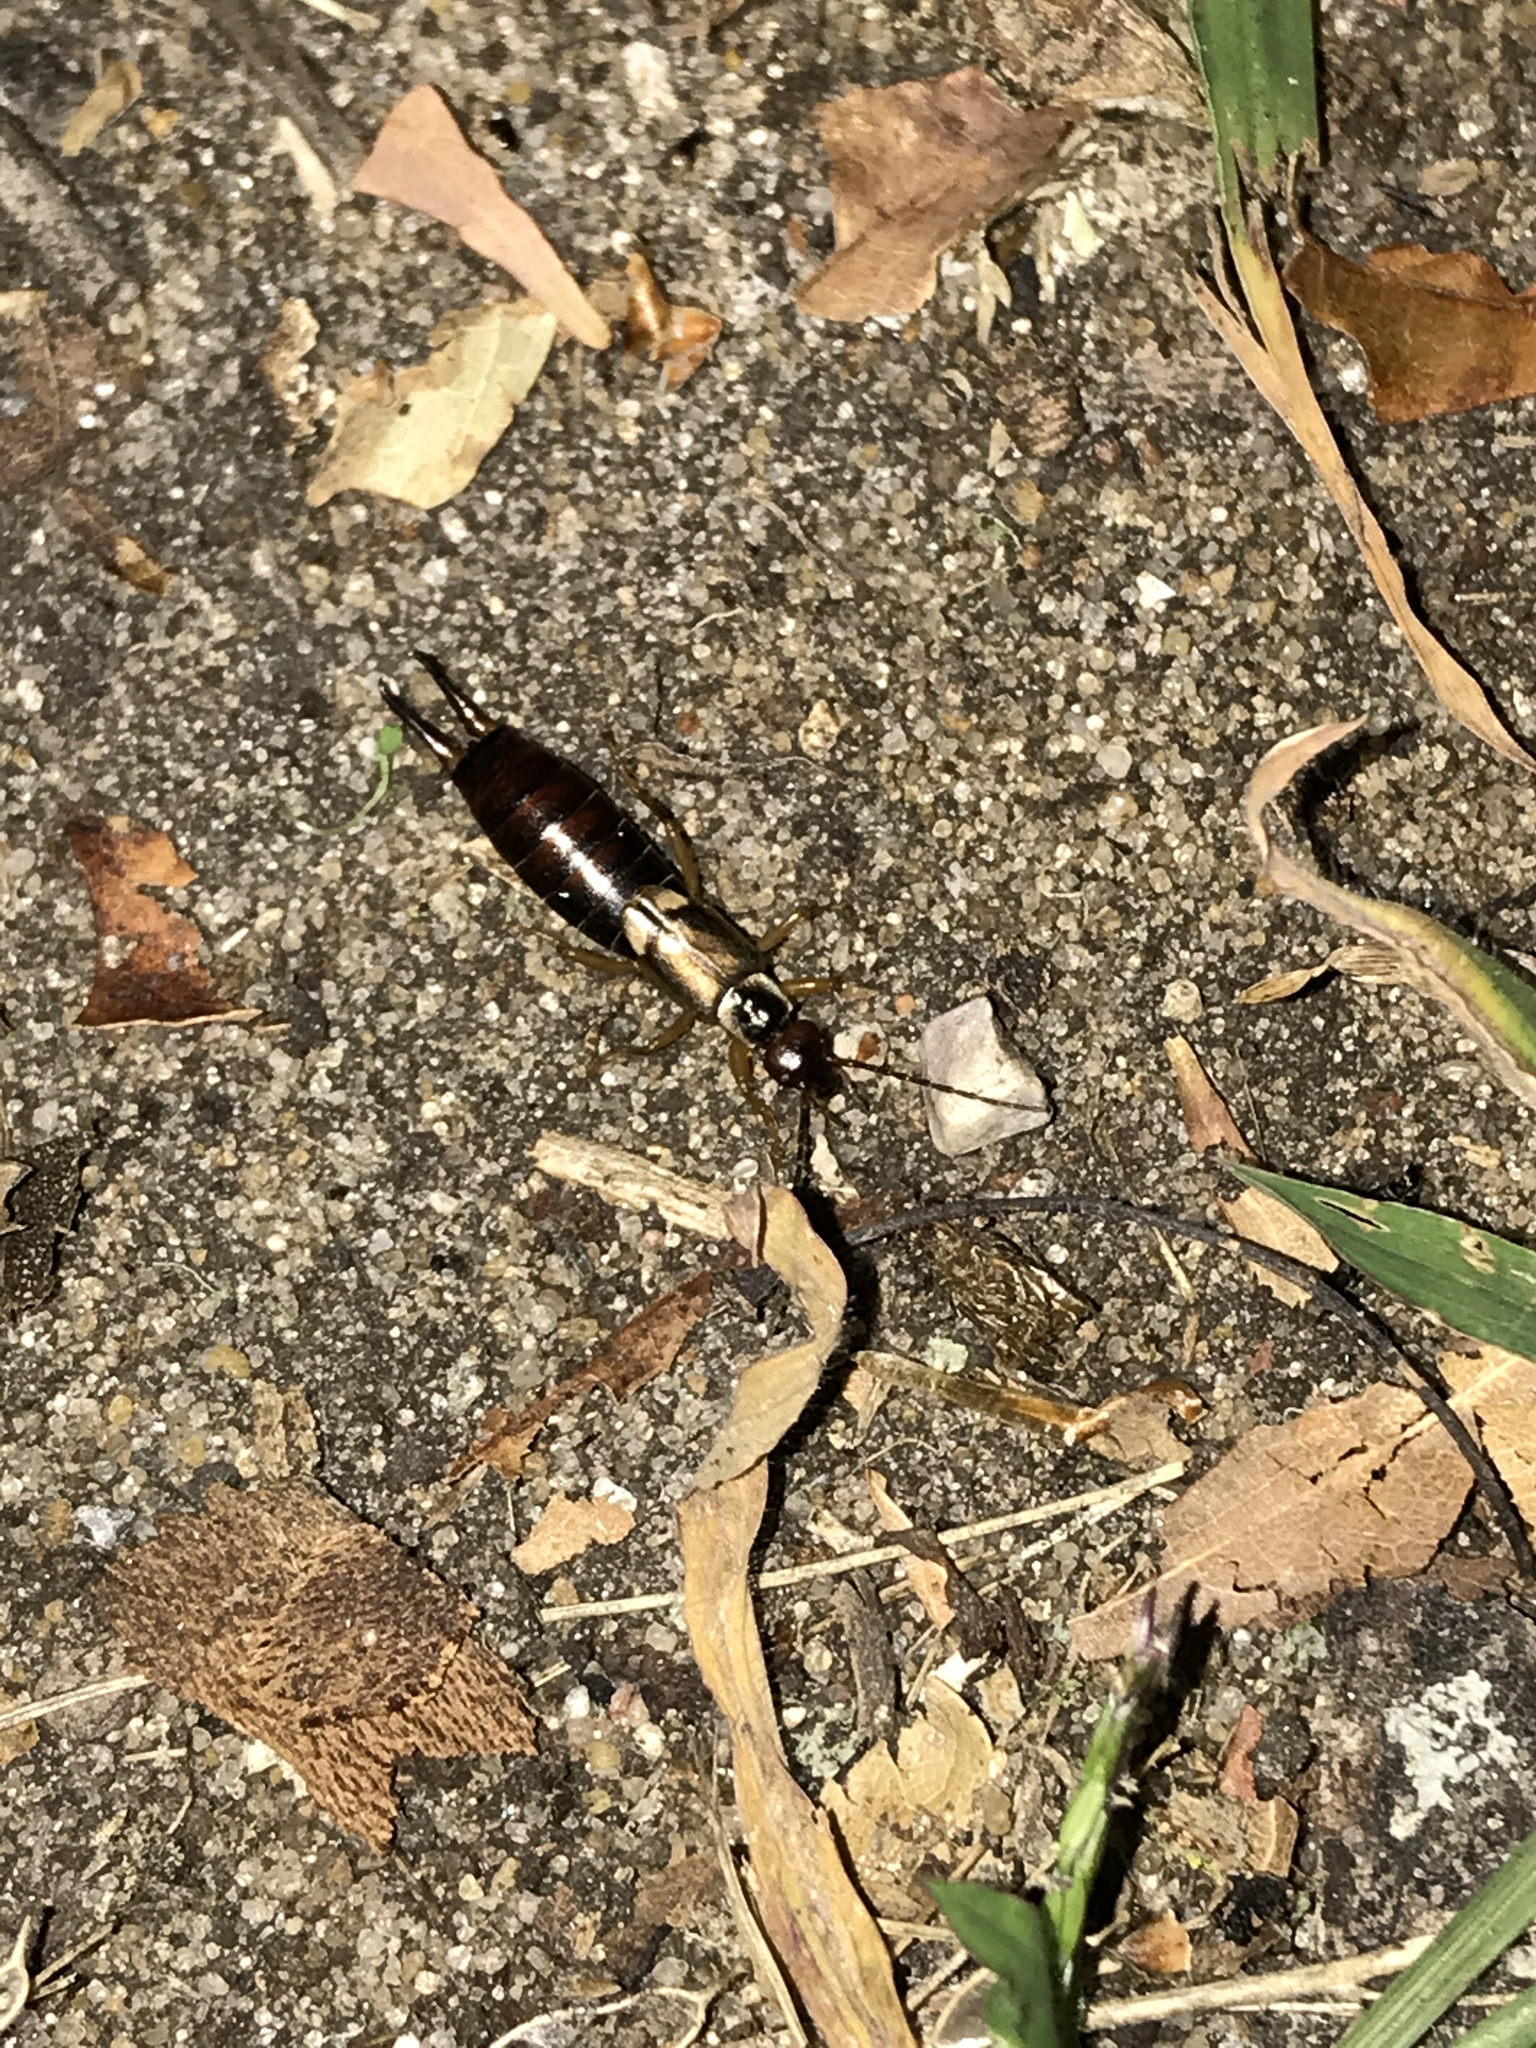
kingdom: Animalia
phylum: Arthropoda
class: Insecta
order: Dermaptera
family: Forficulidae
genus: Forficula
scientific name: Forficula
